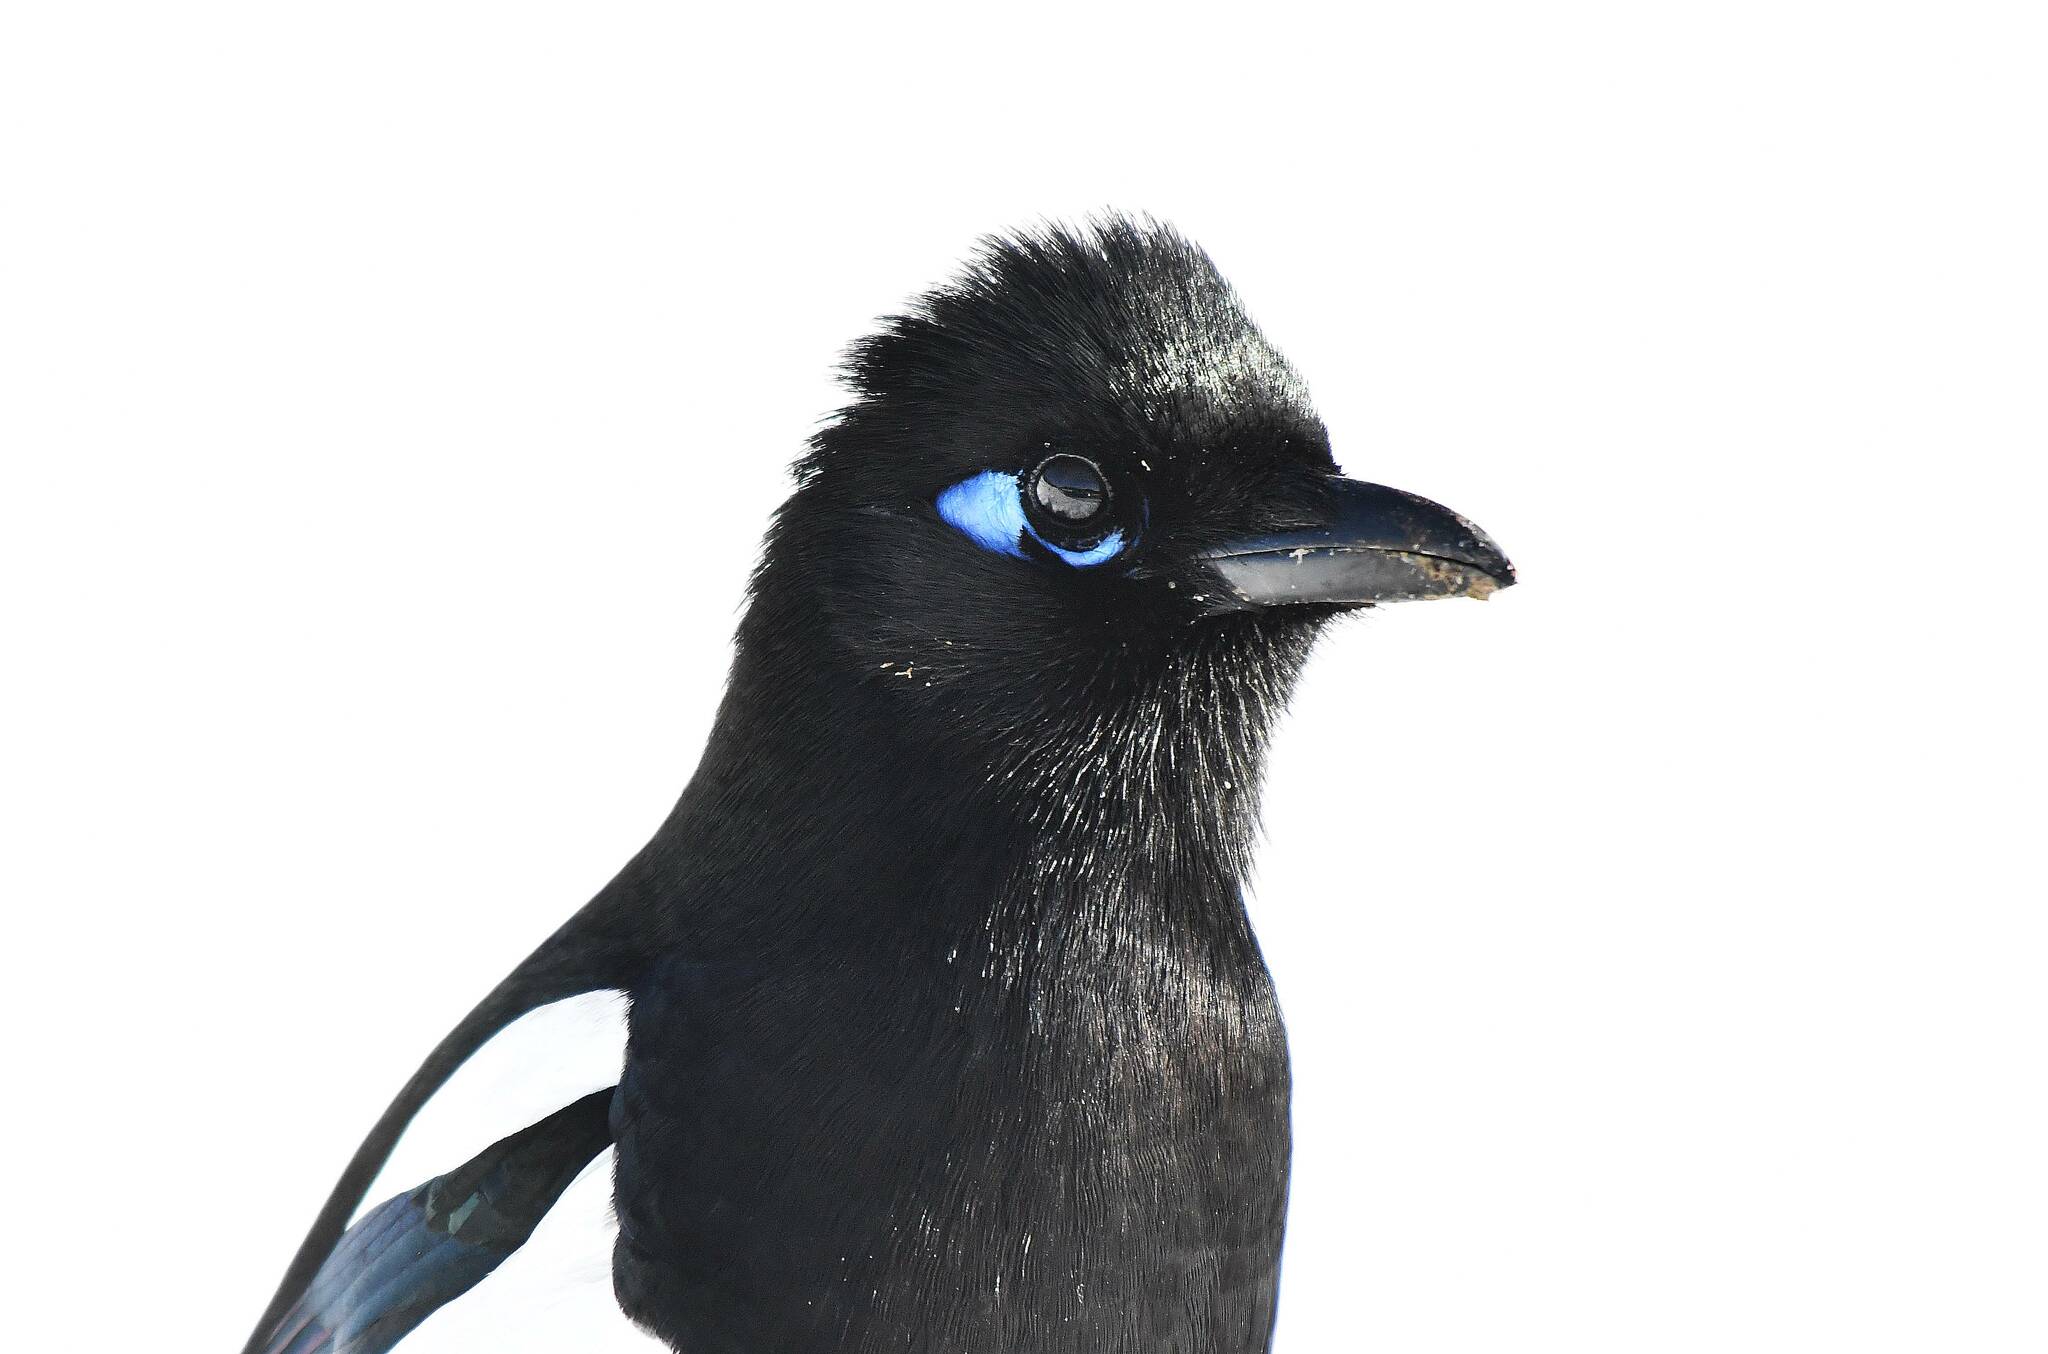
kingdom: Animalia
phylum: Chordata
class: Aves
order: Passeriformes
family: Corvidae
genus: Pica
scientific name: Pica mauritanica
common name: Maghreb magpie
